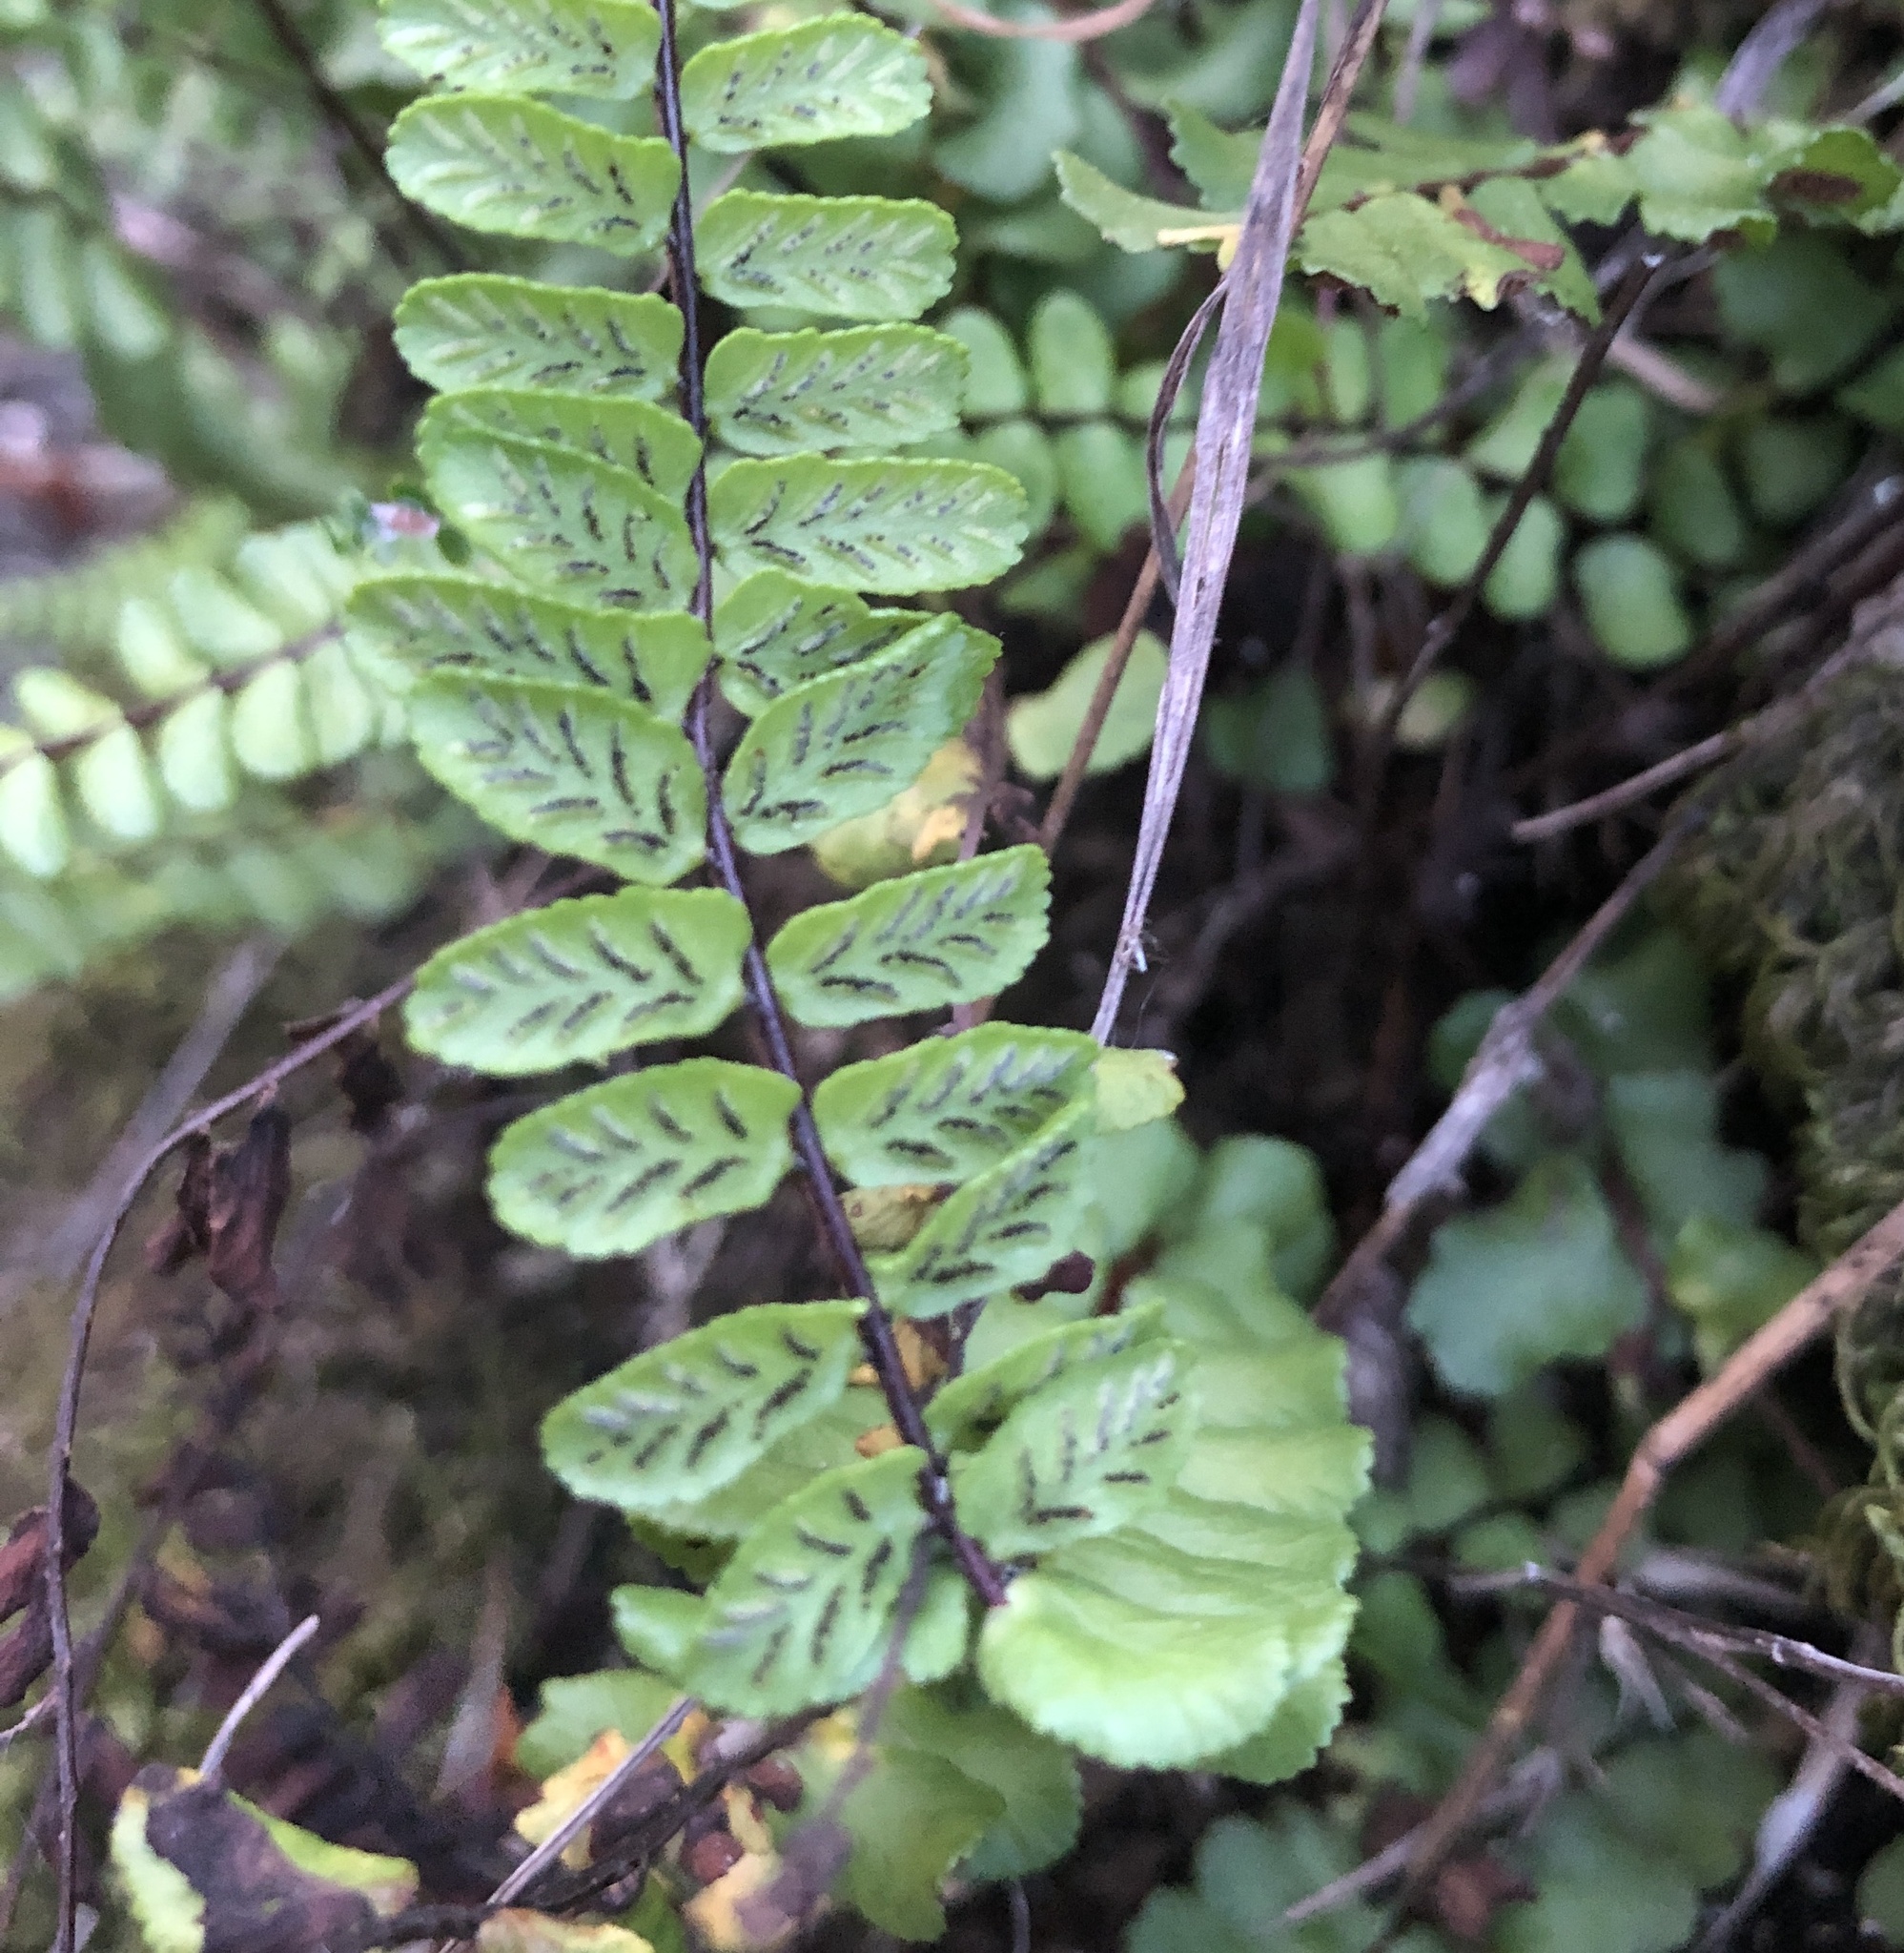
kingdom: Plantae
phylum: Tracheophyta
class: Polypodiopsida
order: Polypodiales
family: Aspleniaceae
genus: Asplenium
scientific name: Asplenium trichomanes
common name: Maidenhair spleenwort
